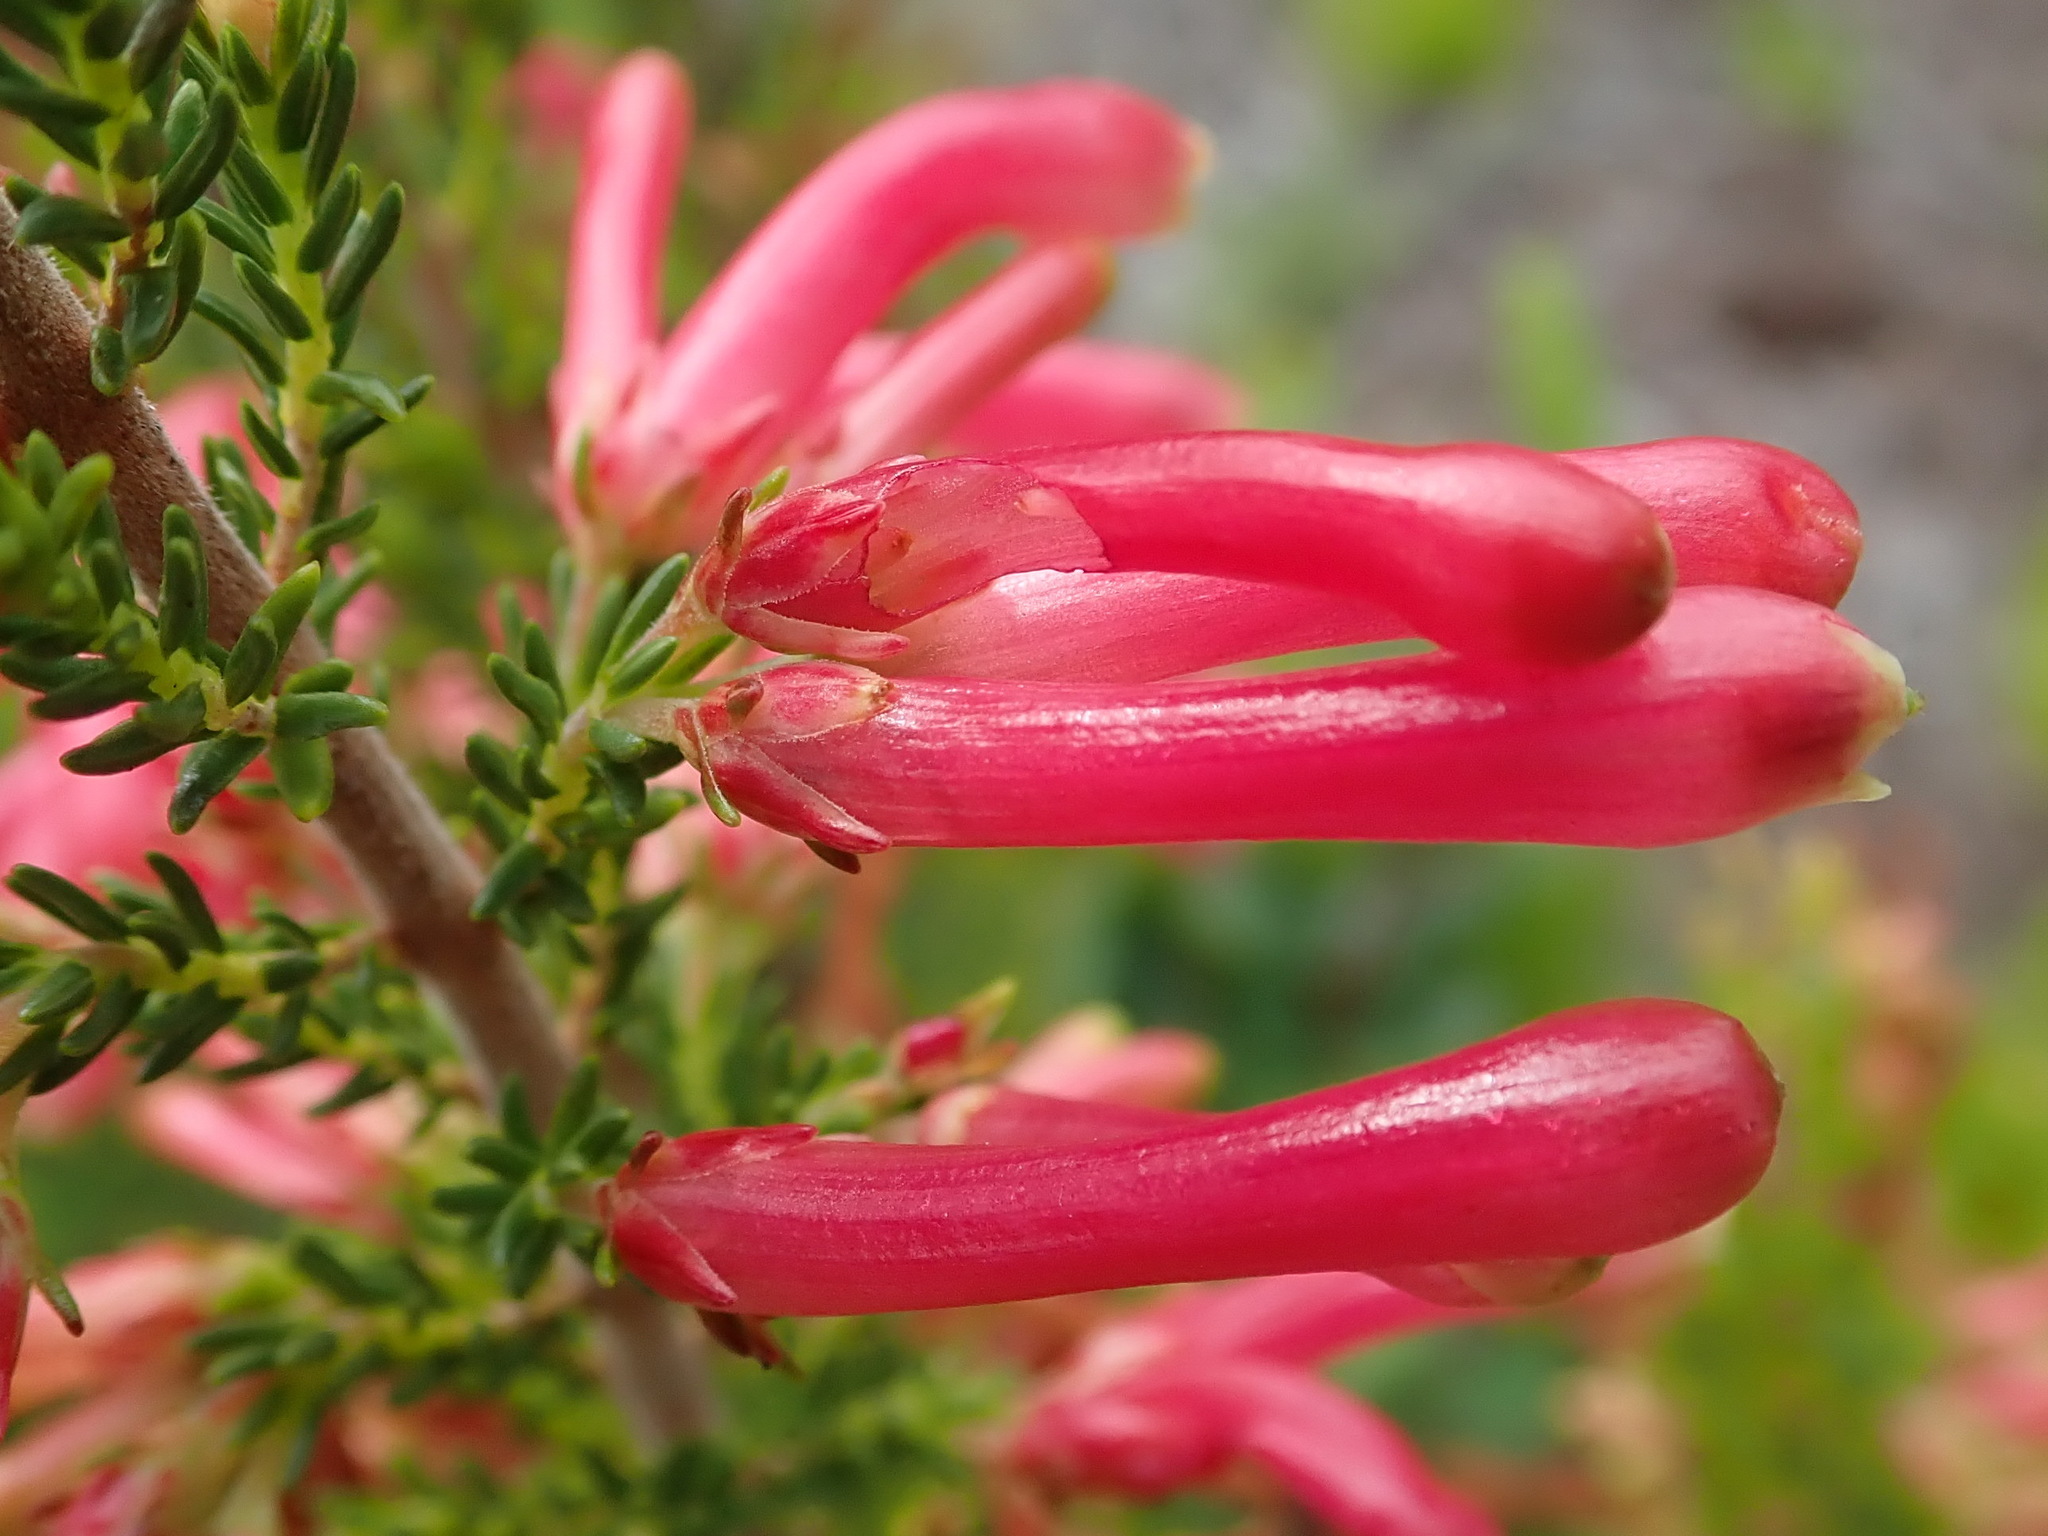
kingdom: Plantae
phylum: Tracheophyta
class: Magnoliopsida
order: Ericales
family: Ericaceae
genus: Erica
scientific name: Erica discolor
